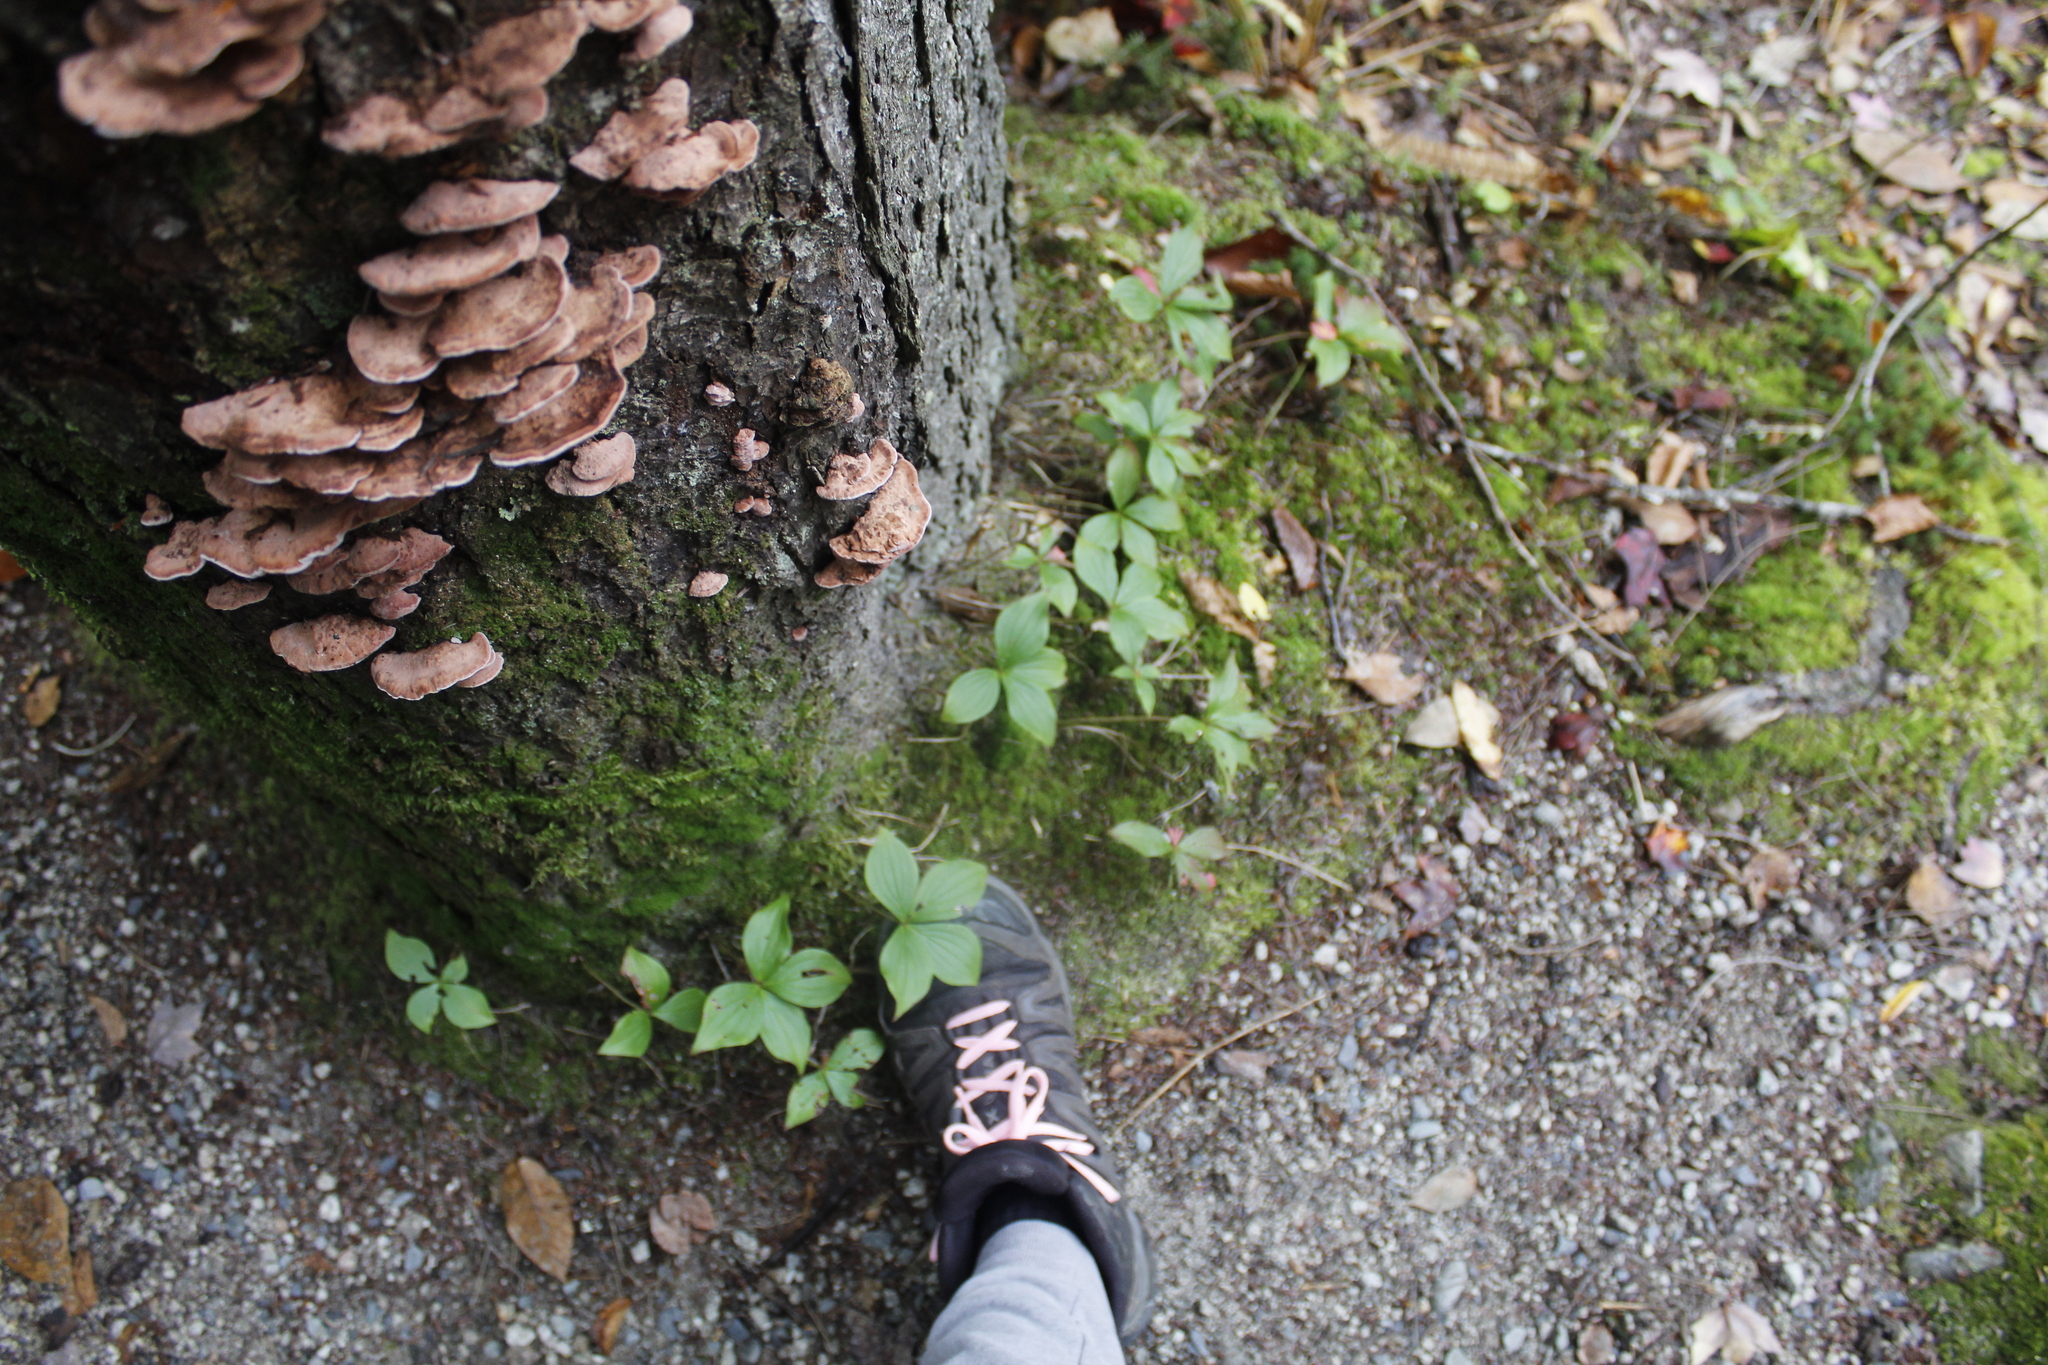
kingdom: Plantae
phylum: Tracheophyta
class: Magnoliopsida
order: Cornales
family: Cornaceae
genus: Cornus
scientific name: Cornus canadensis
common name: Creeping dogwood
